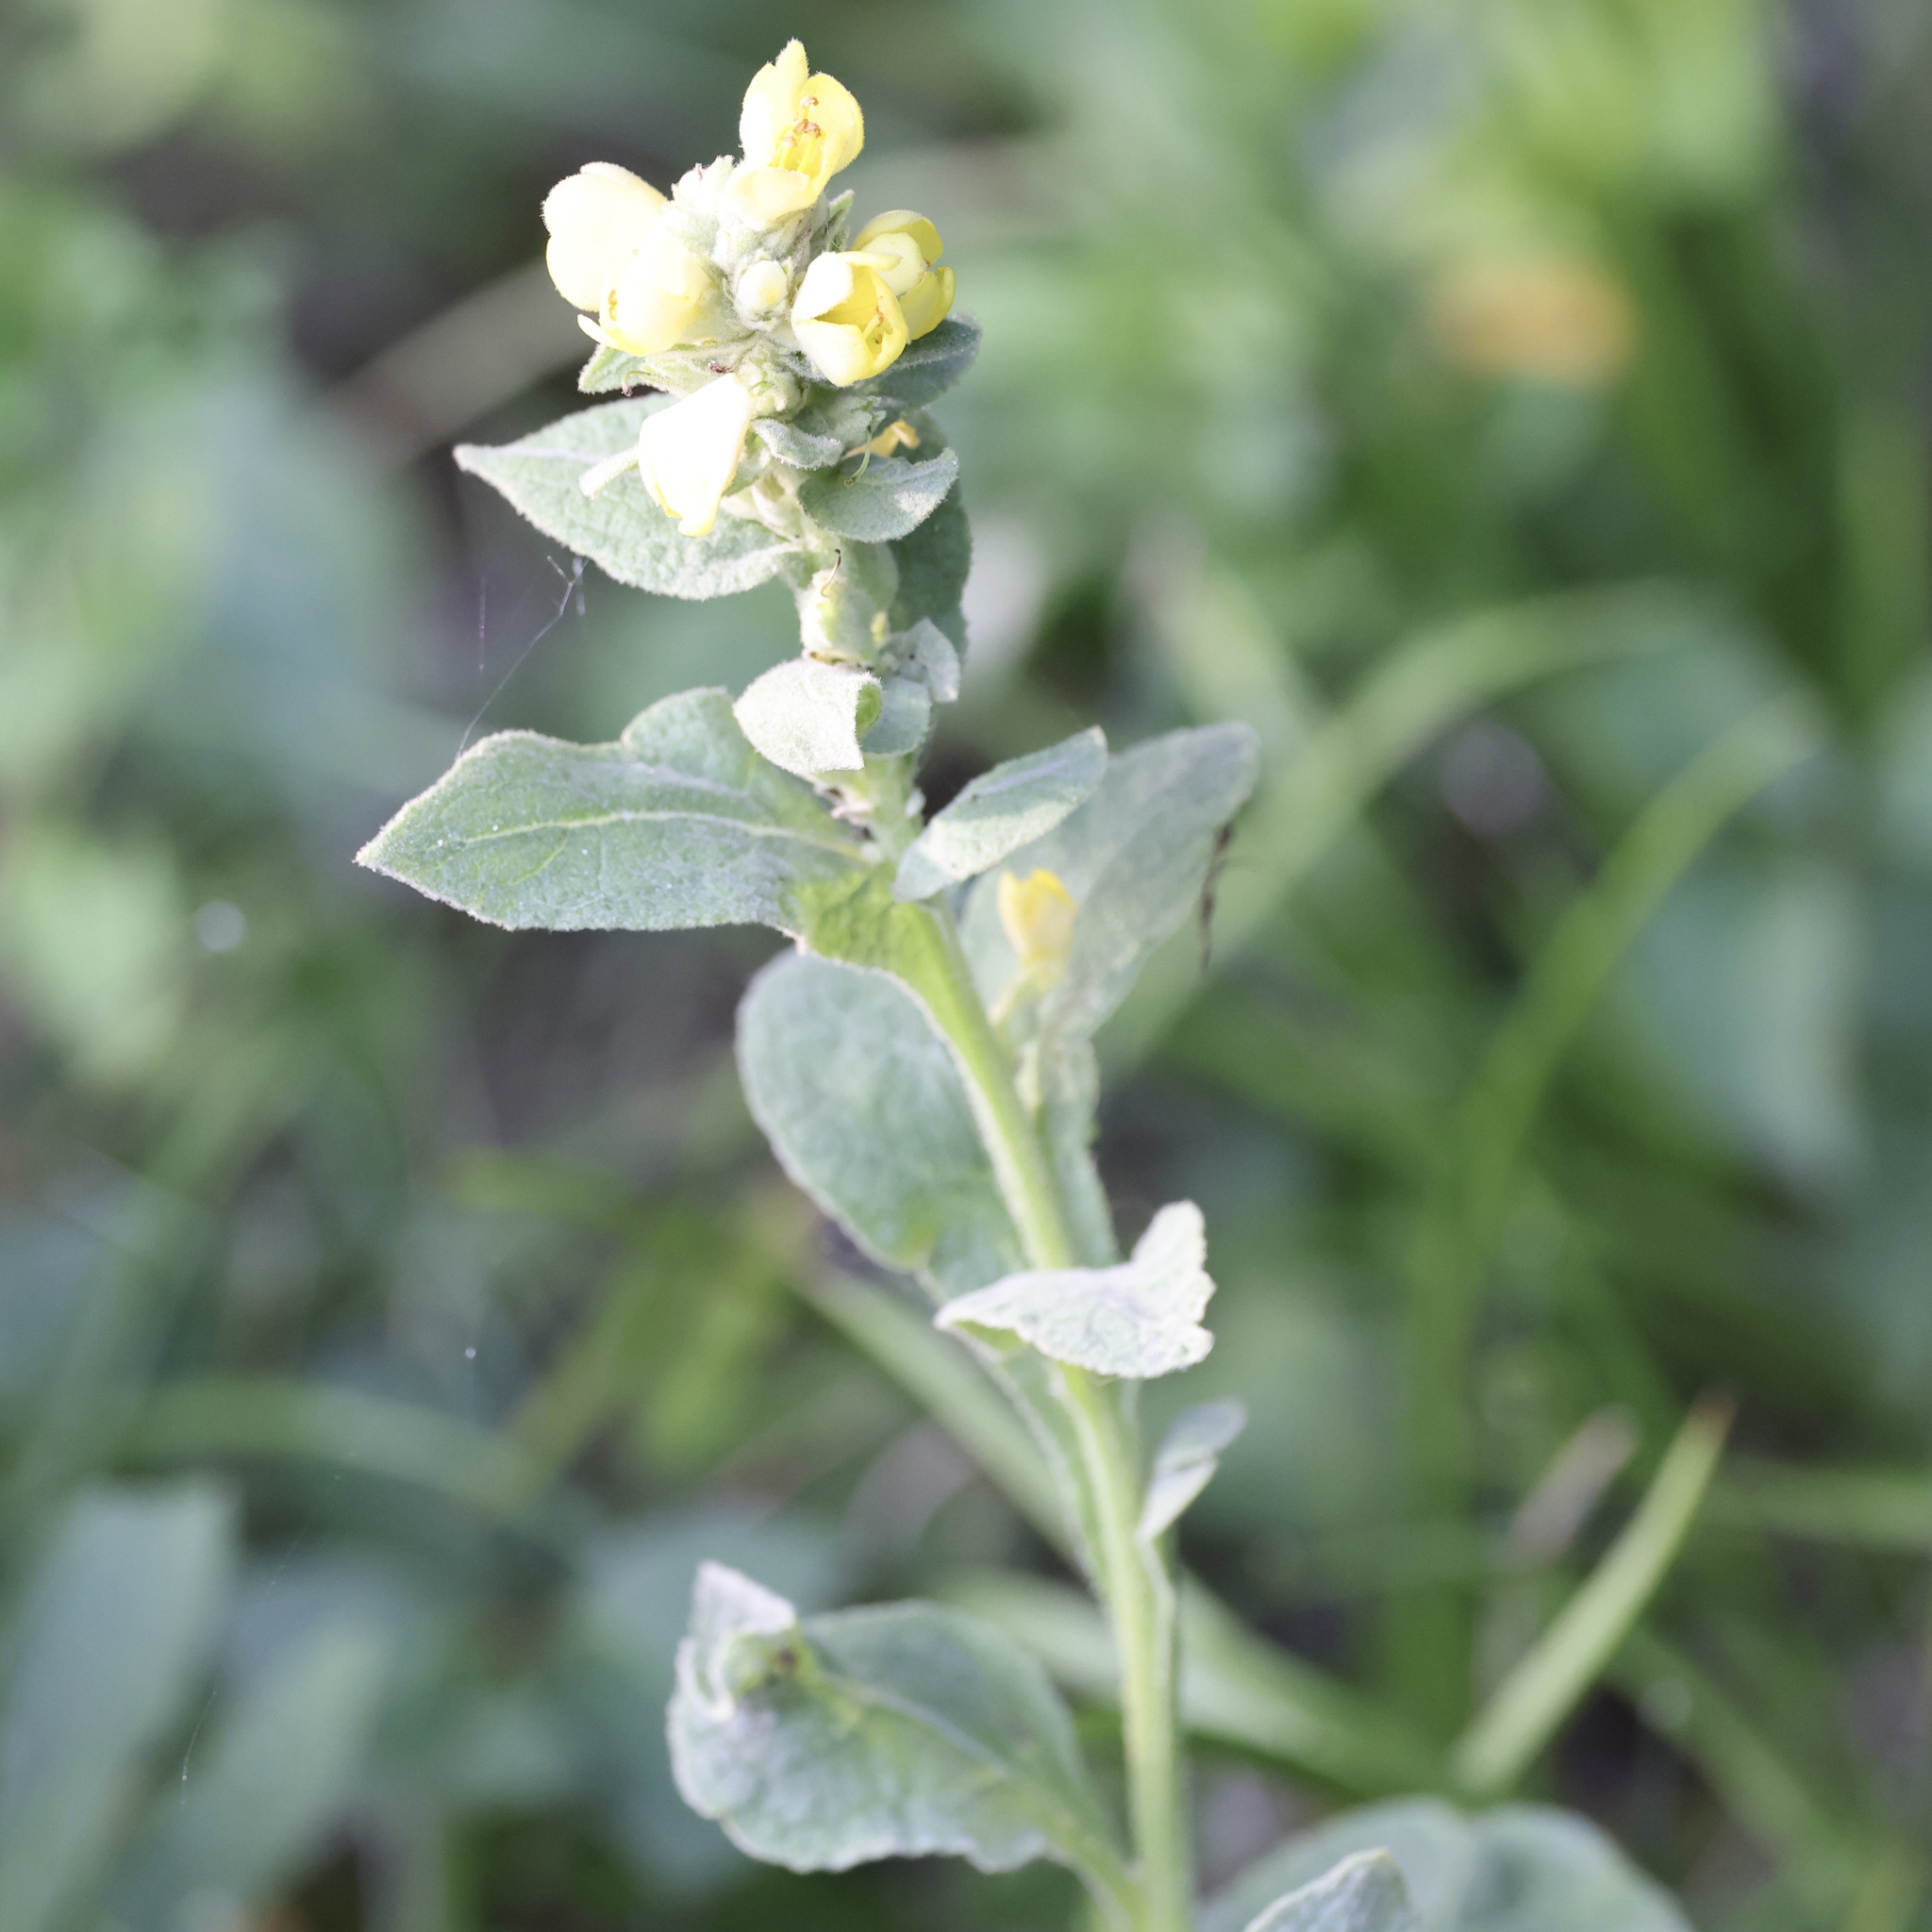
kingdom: Plantae
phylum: Tracheophyta
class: Magnoliopsida
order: Lamiales
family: Scrophulariaceae
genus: Verbascum
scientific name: Verbascum thapsus
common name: Common mullein
